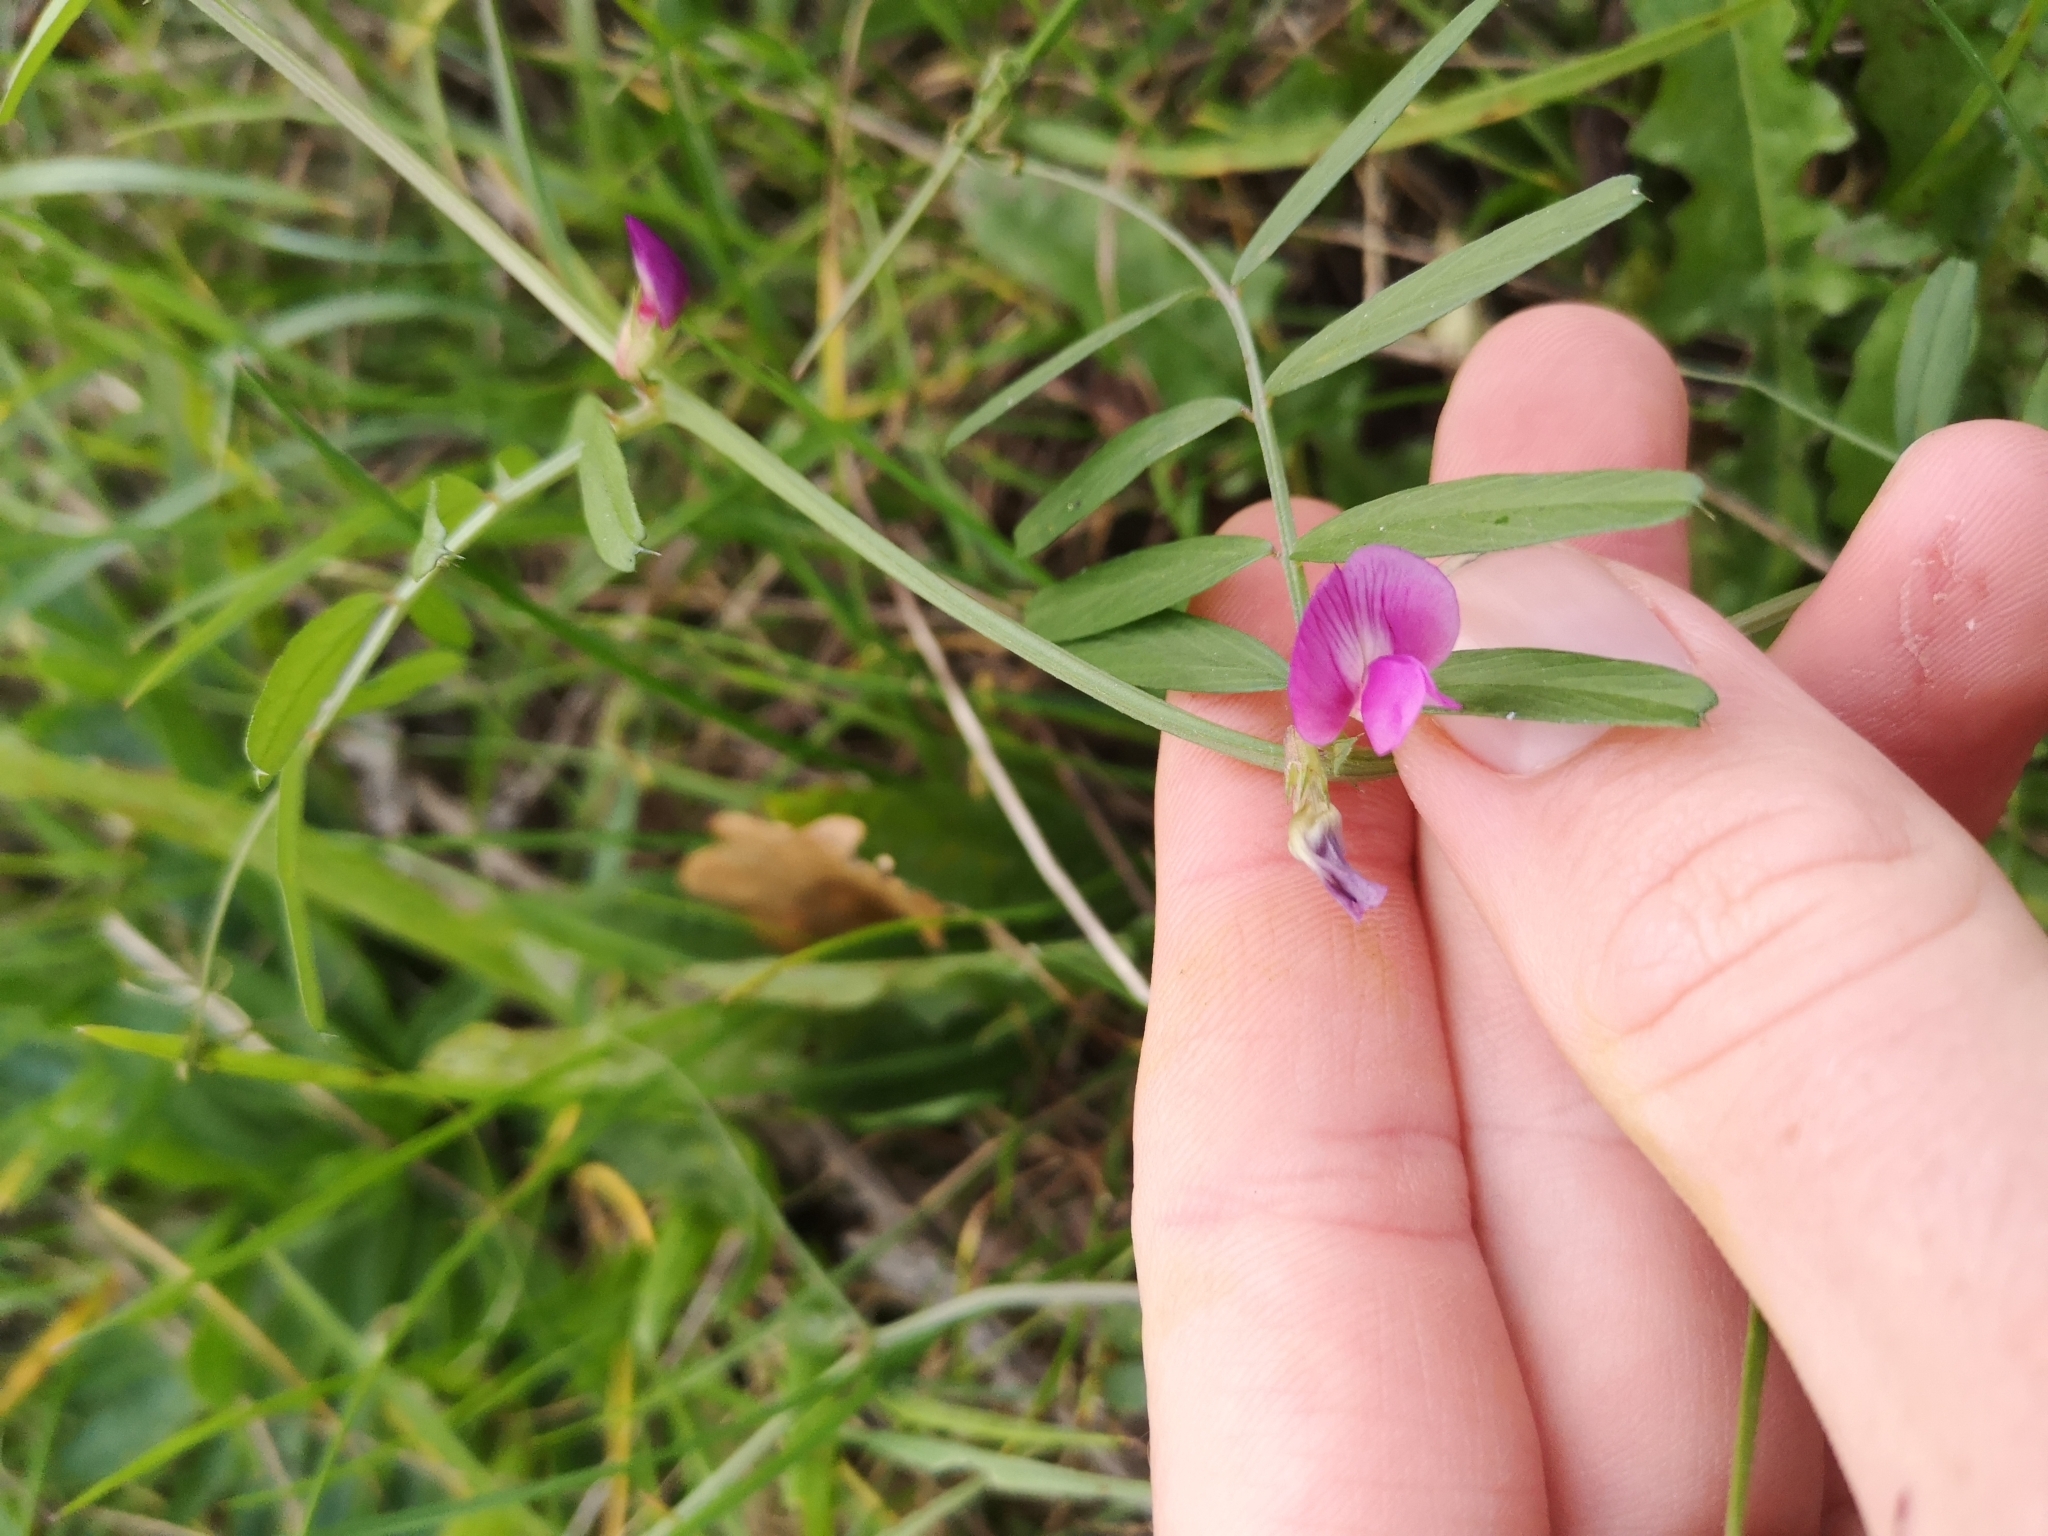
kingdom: Plantae
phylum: Tracheophyta
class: Magnoliopsida
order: Fabales
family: Fabaceae
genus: Vicia
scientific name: Vicia sativa
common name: Garden vetch
